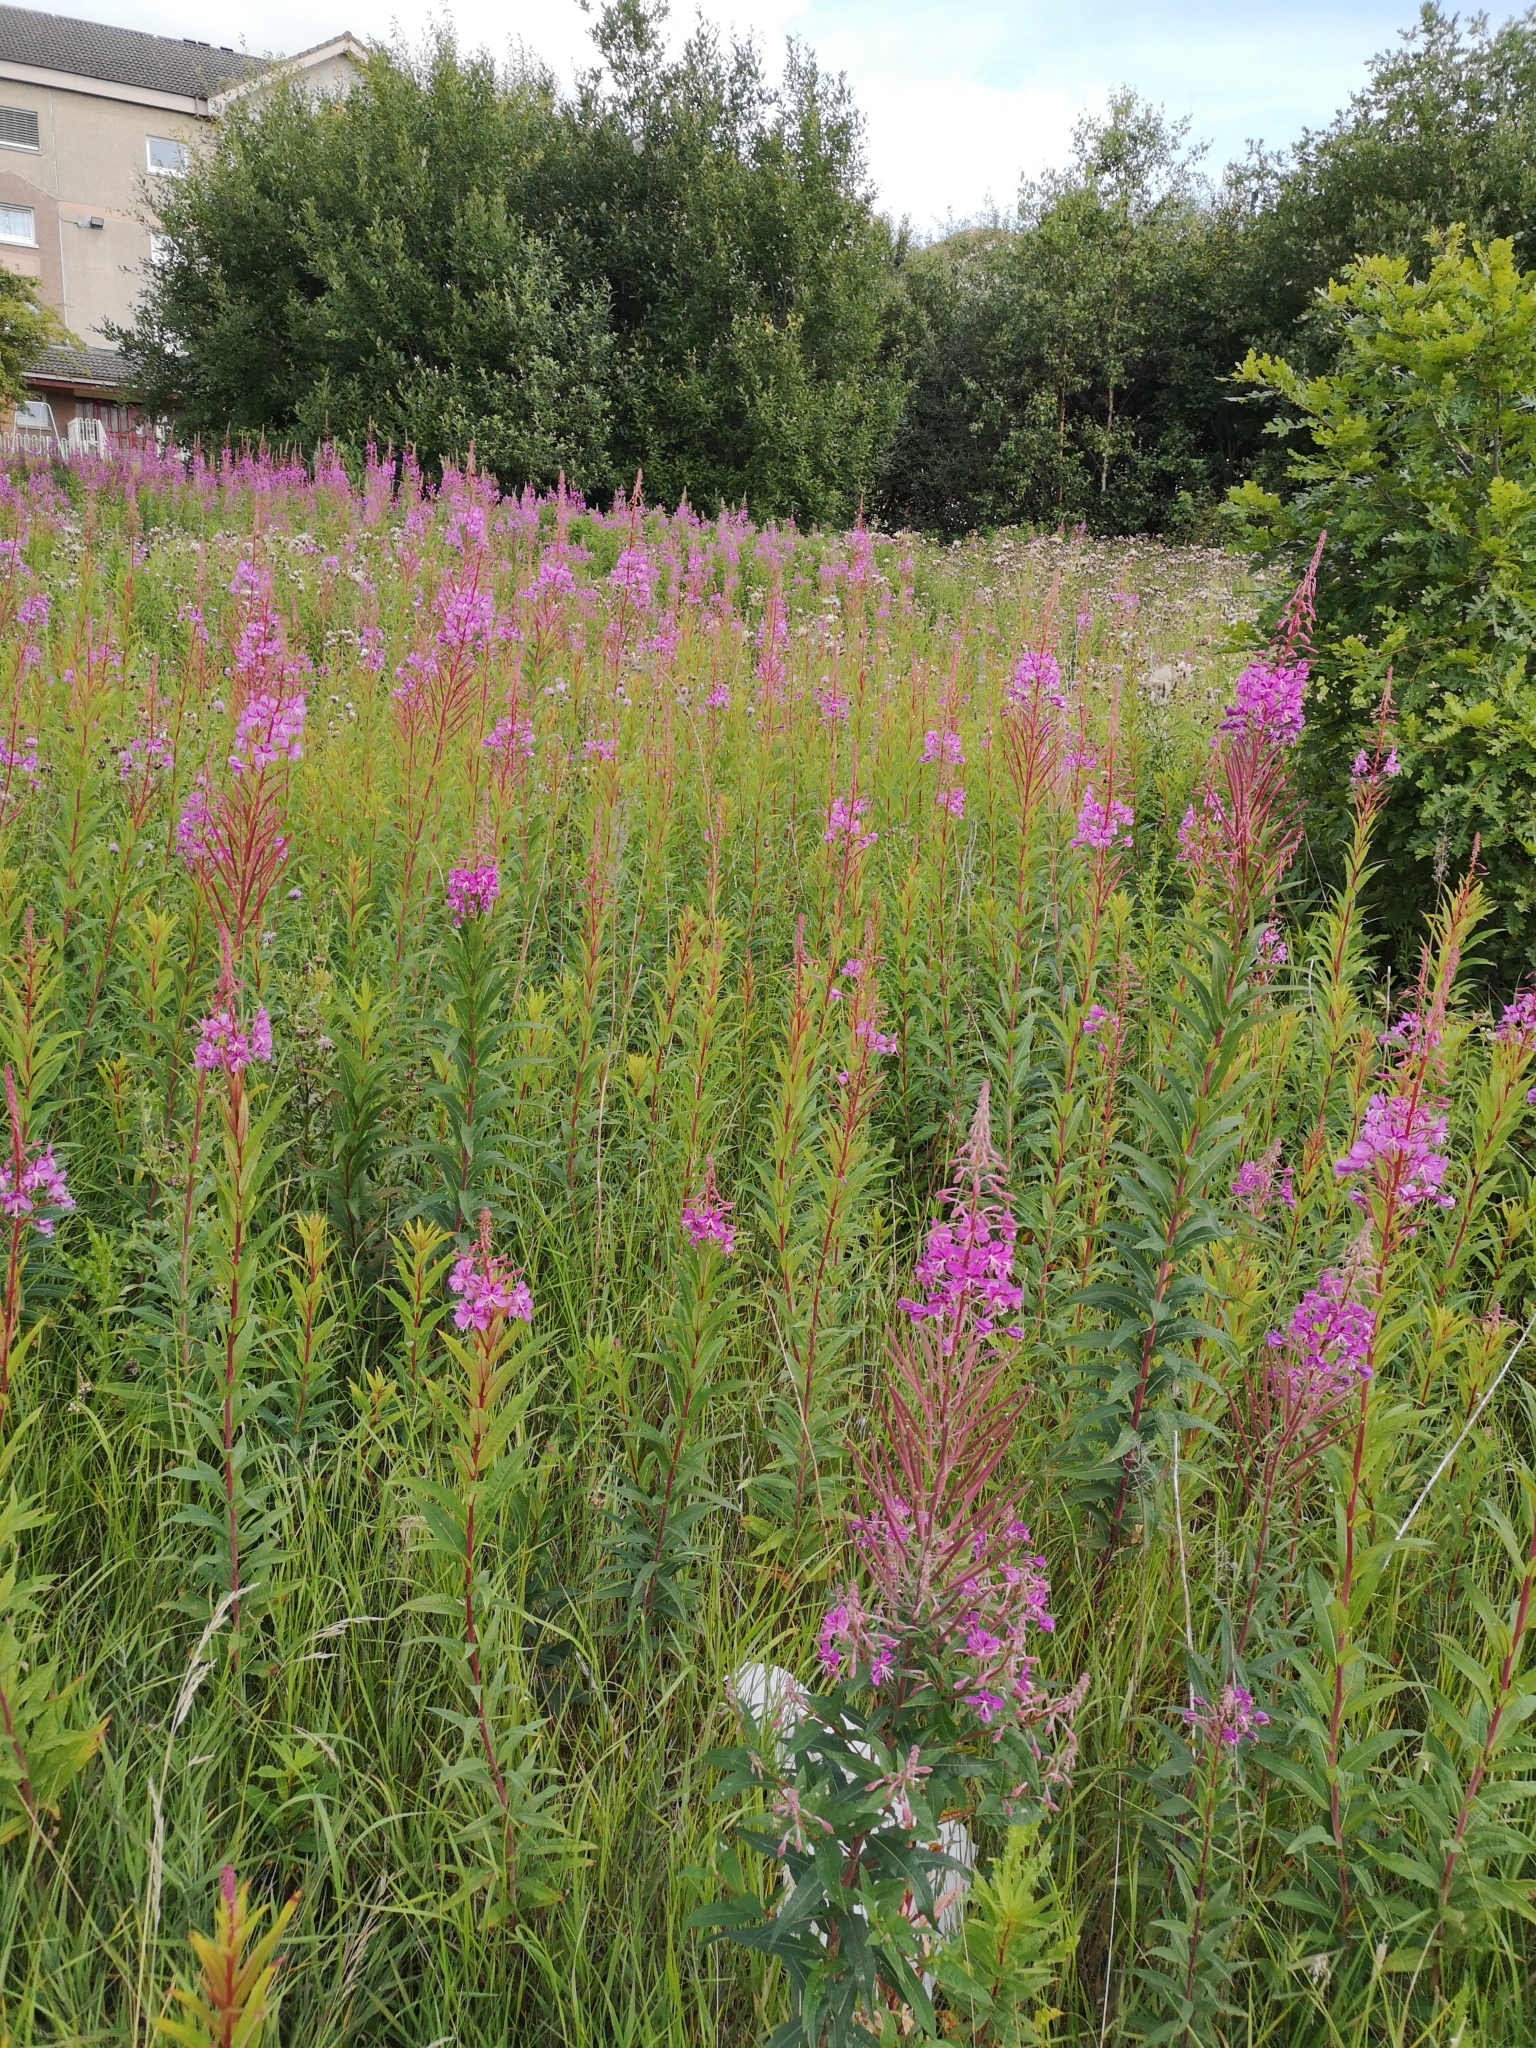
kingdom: Plantae
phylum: Tracheophyta
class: Magnoliopsida
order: Myrtales
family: Onagraceae
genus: Chamaenerion
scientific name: Chamaenerion angustifolium
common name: Fireweed
